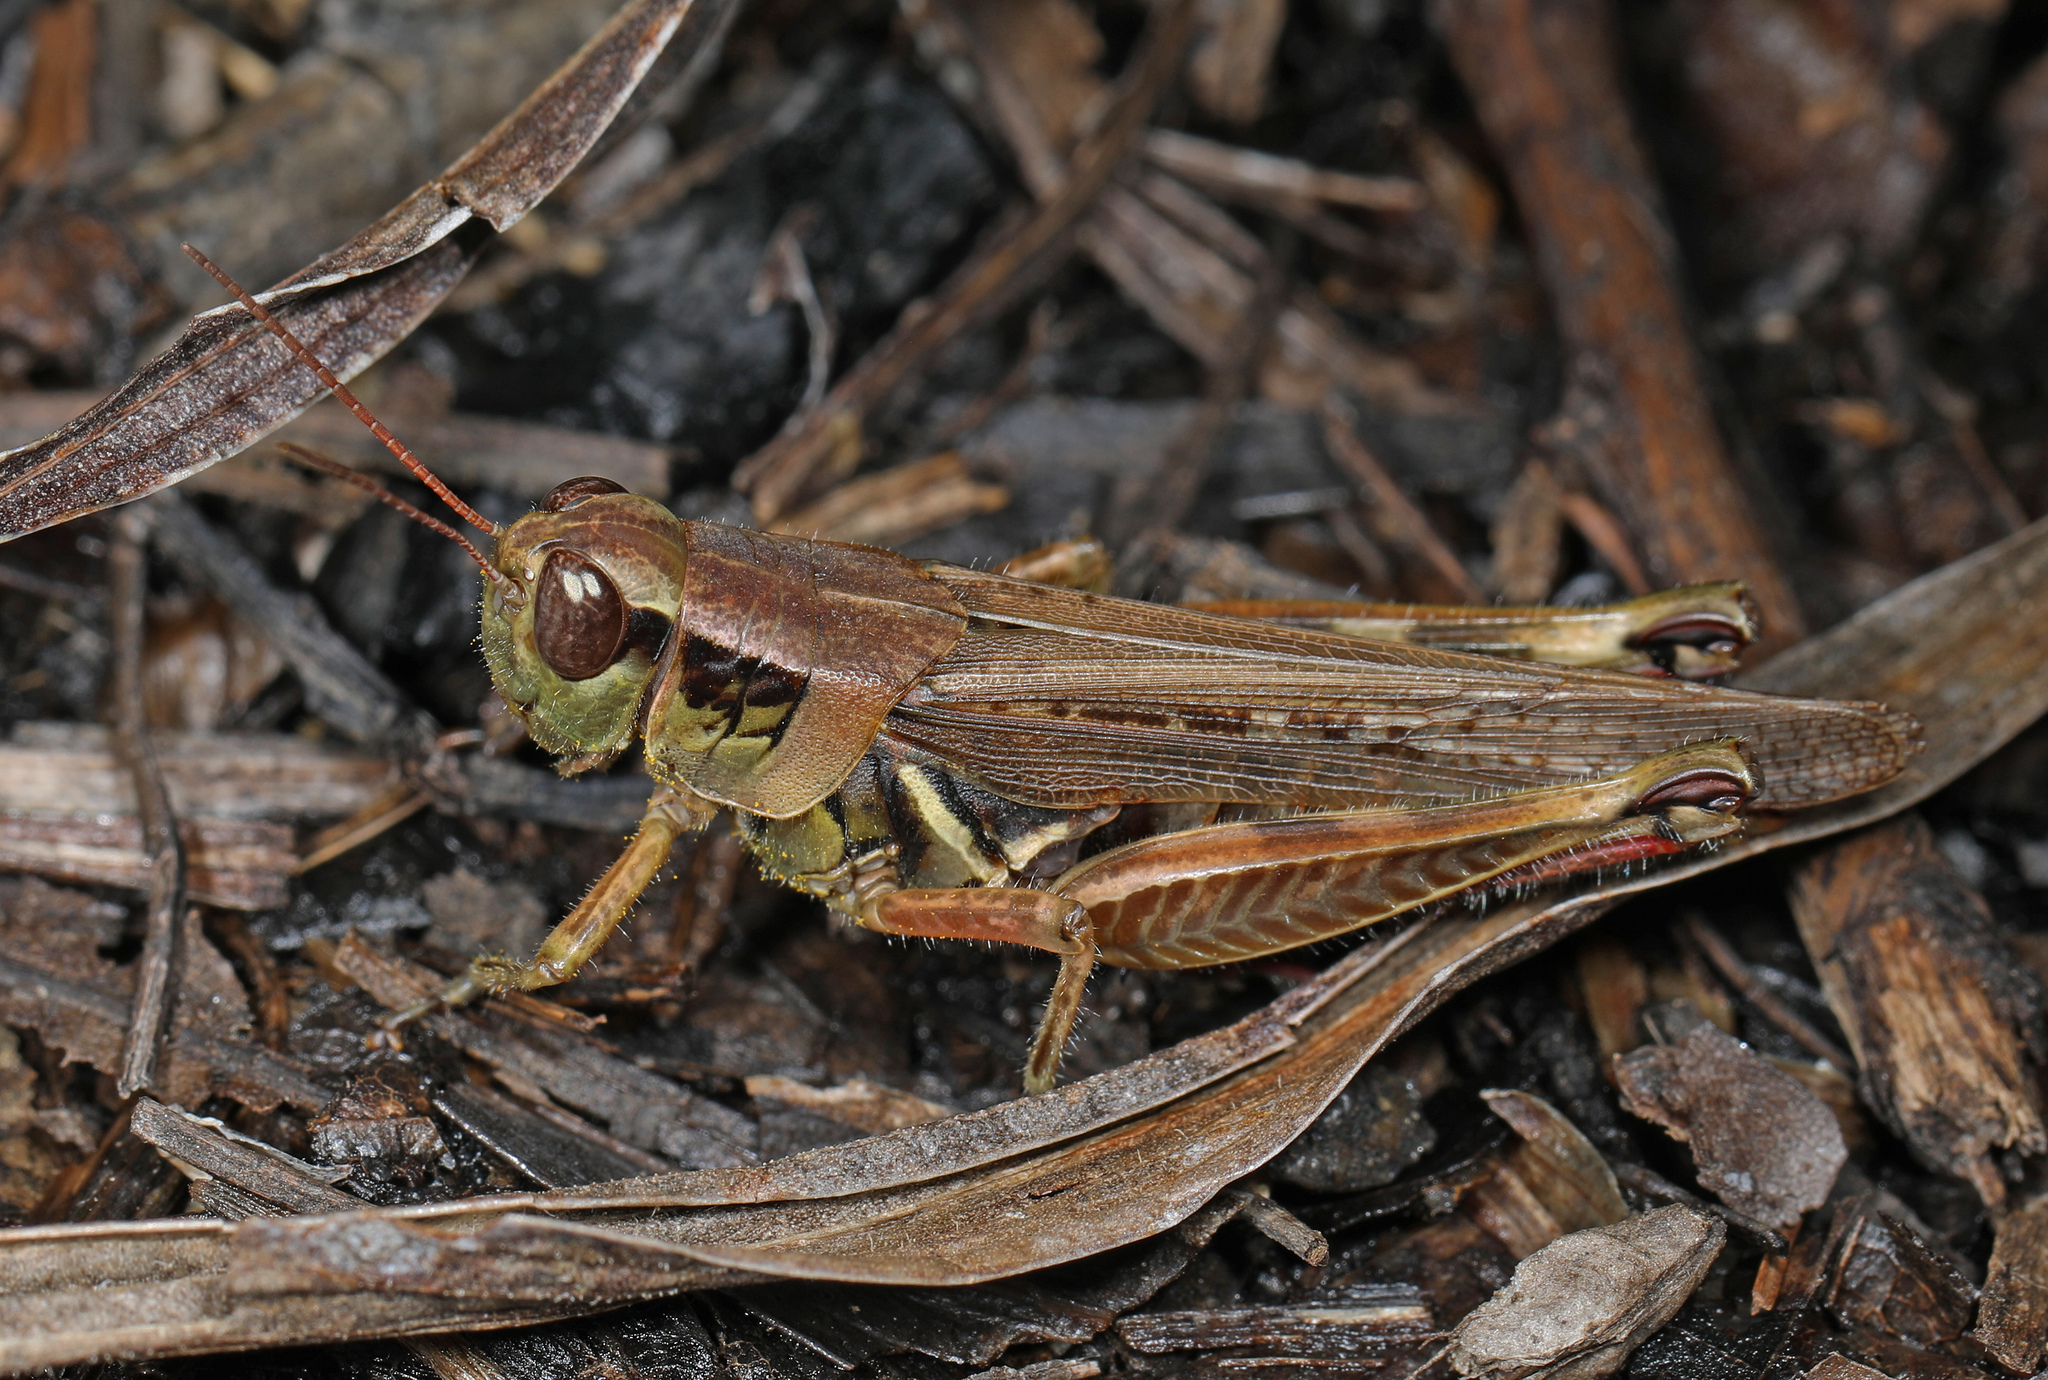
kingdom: Animalia
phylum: Arthropoda
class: Insecta
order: Orthoptera
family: Acrididae
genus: Melanoplus
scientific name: Melanoplus femurrubrum
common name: Red-legged grasshopper
